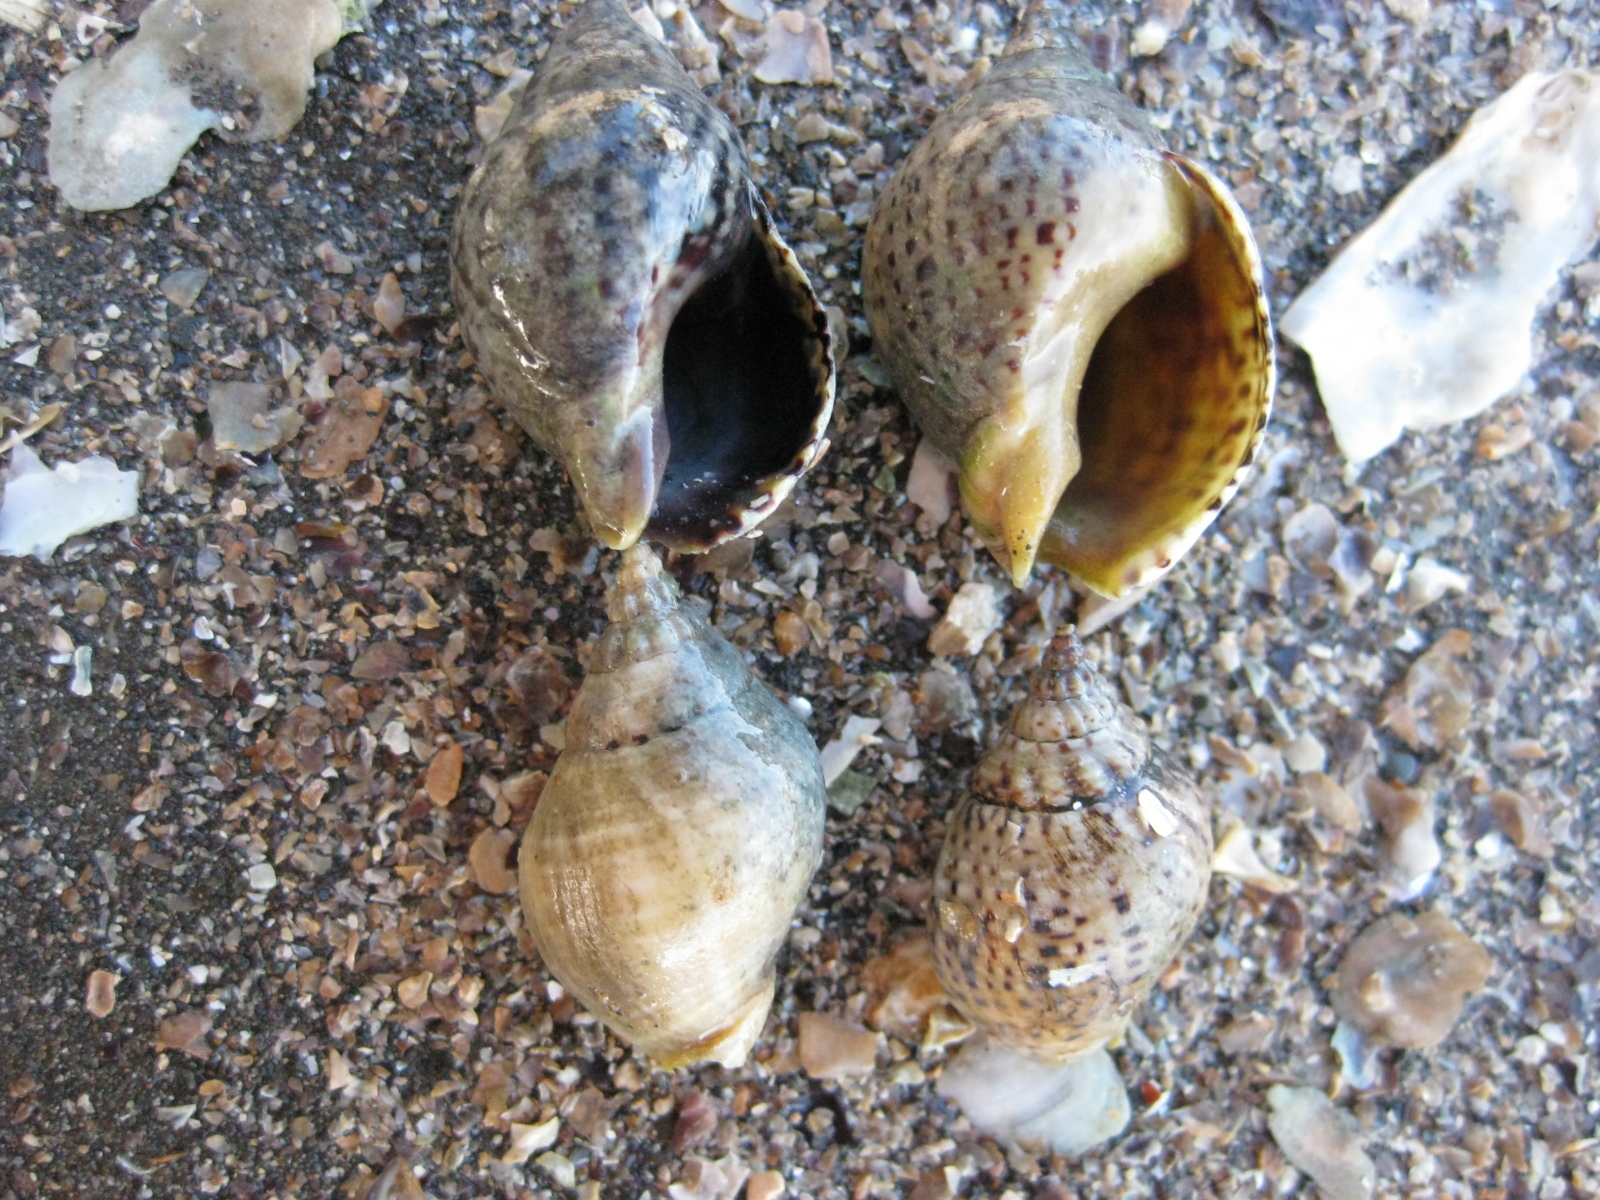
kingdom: Animalia
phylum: Mollusca
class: Gastropoda
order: Neogastropoda
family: Cominellidae
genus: Cominella
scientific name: Cominella adspersa
